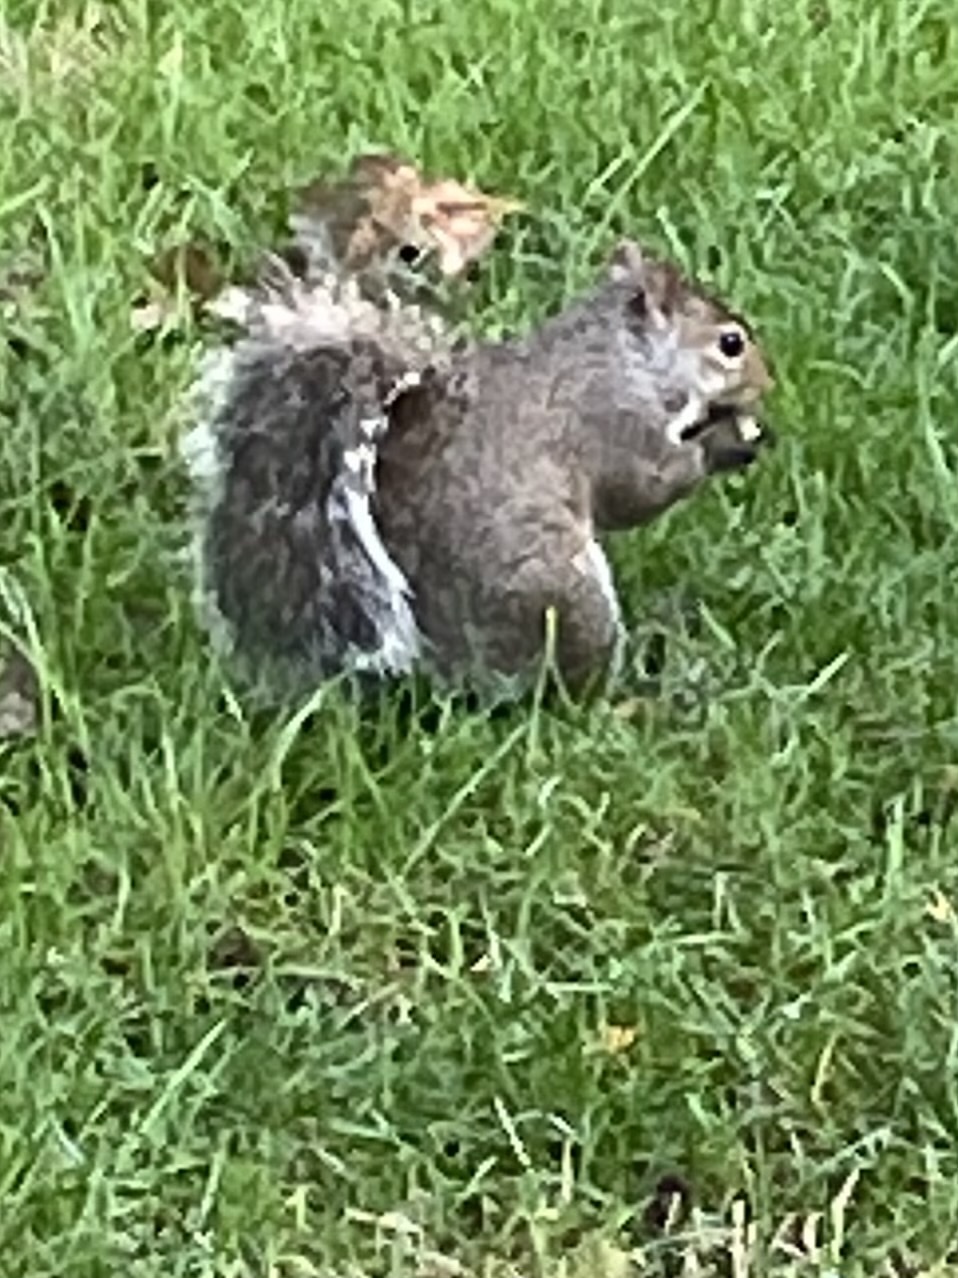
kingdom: Animalia
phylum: Chordata
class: Mammalia
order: Rodentia
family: Sciuridae
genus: Sciurus
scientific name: Sciurus carolinensis
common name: Eastern gray squirrel
